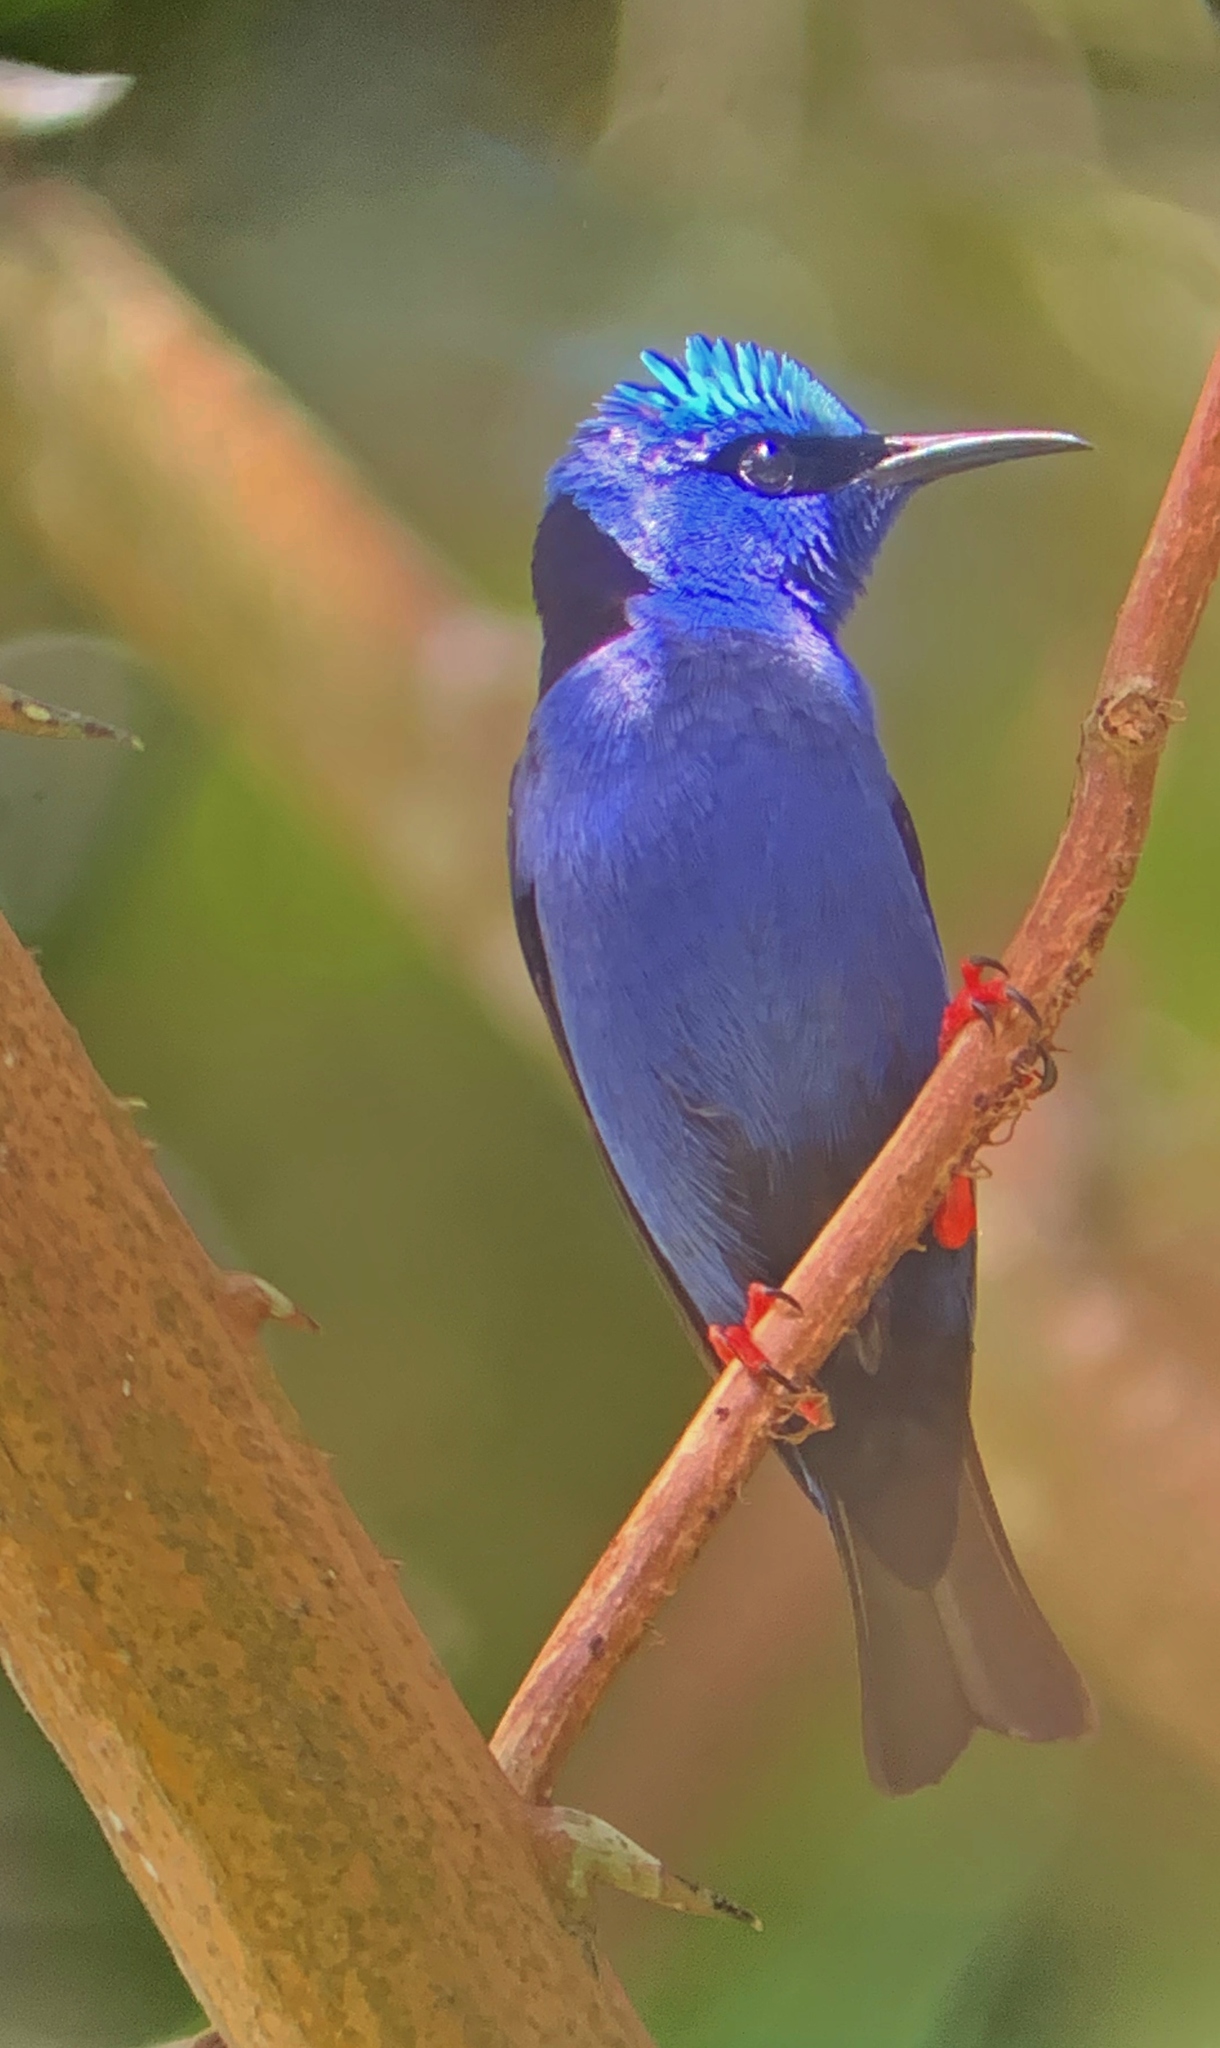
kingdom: Animalia
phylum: Chordata
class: Aves
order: Passeriformes
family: Thraupidae
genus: Cyanerpes
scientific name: Cyanerpes cyaneus
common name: Red-legged honeycreeper
